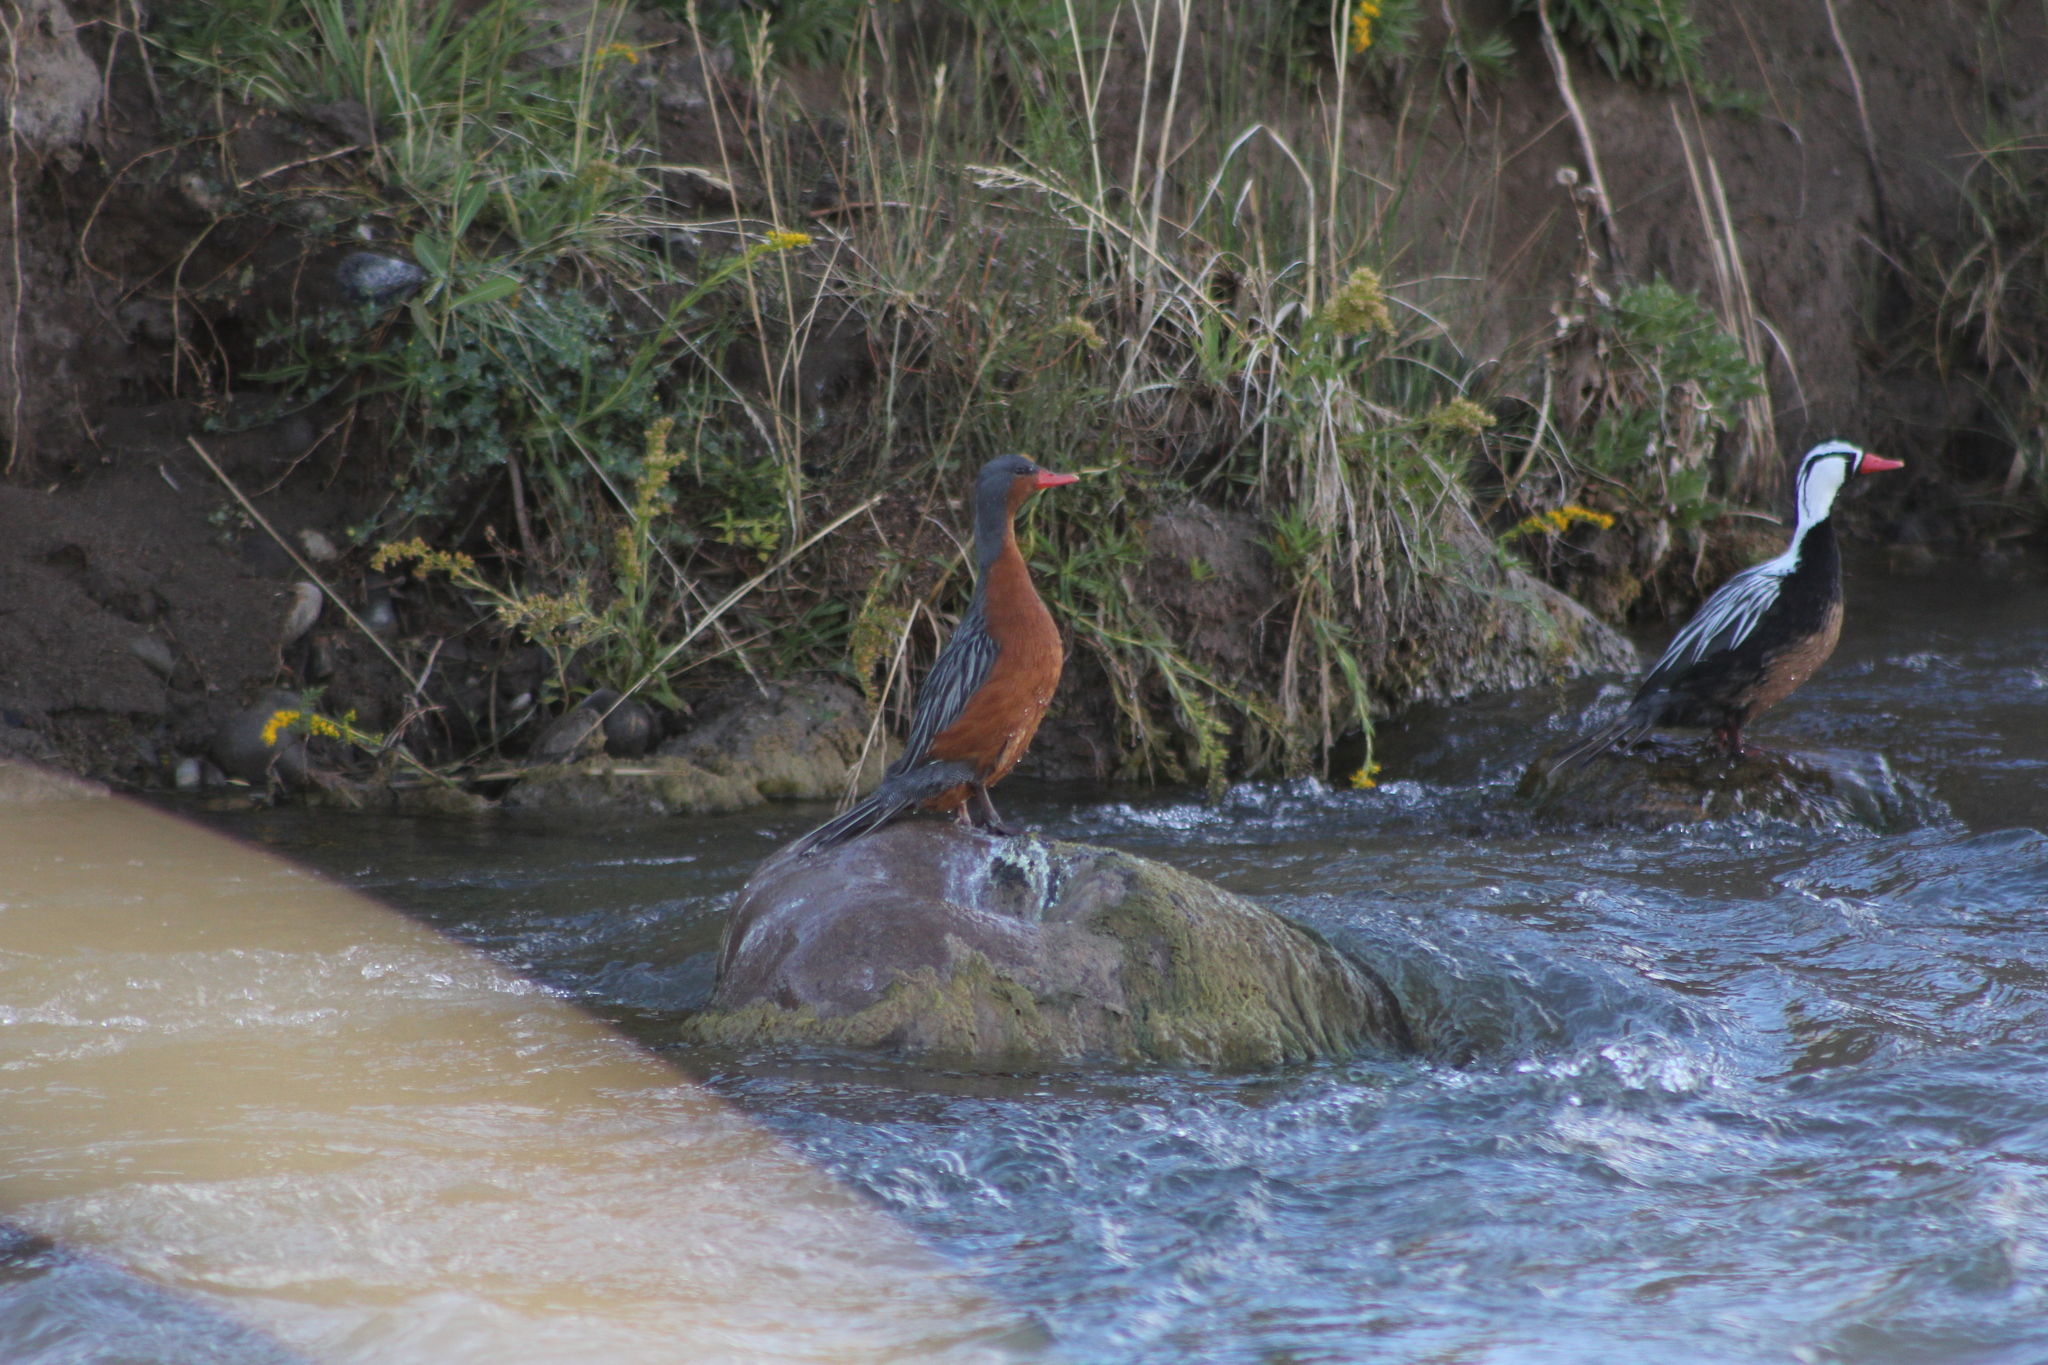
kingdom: Animalia
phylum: Chordata
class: Aves
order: Anseriformes
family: Anatidae
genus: Merganetta
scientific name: Merganetta armata
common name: Torrent duck
